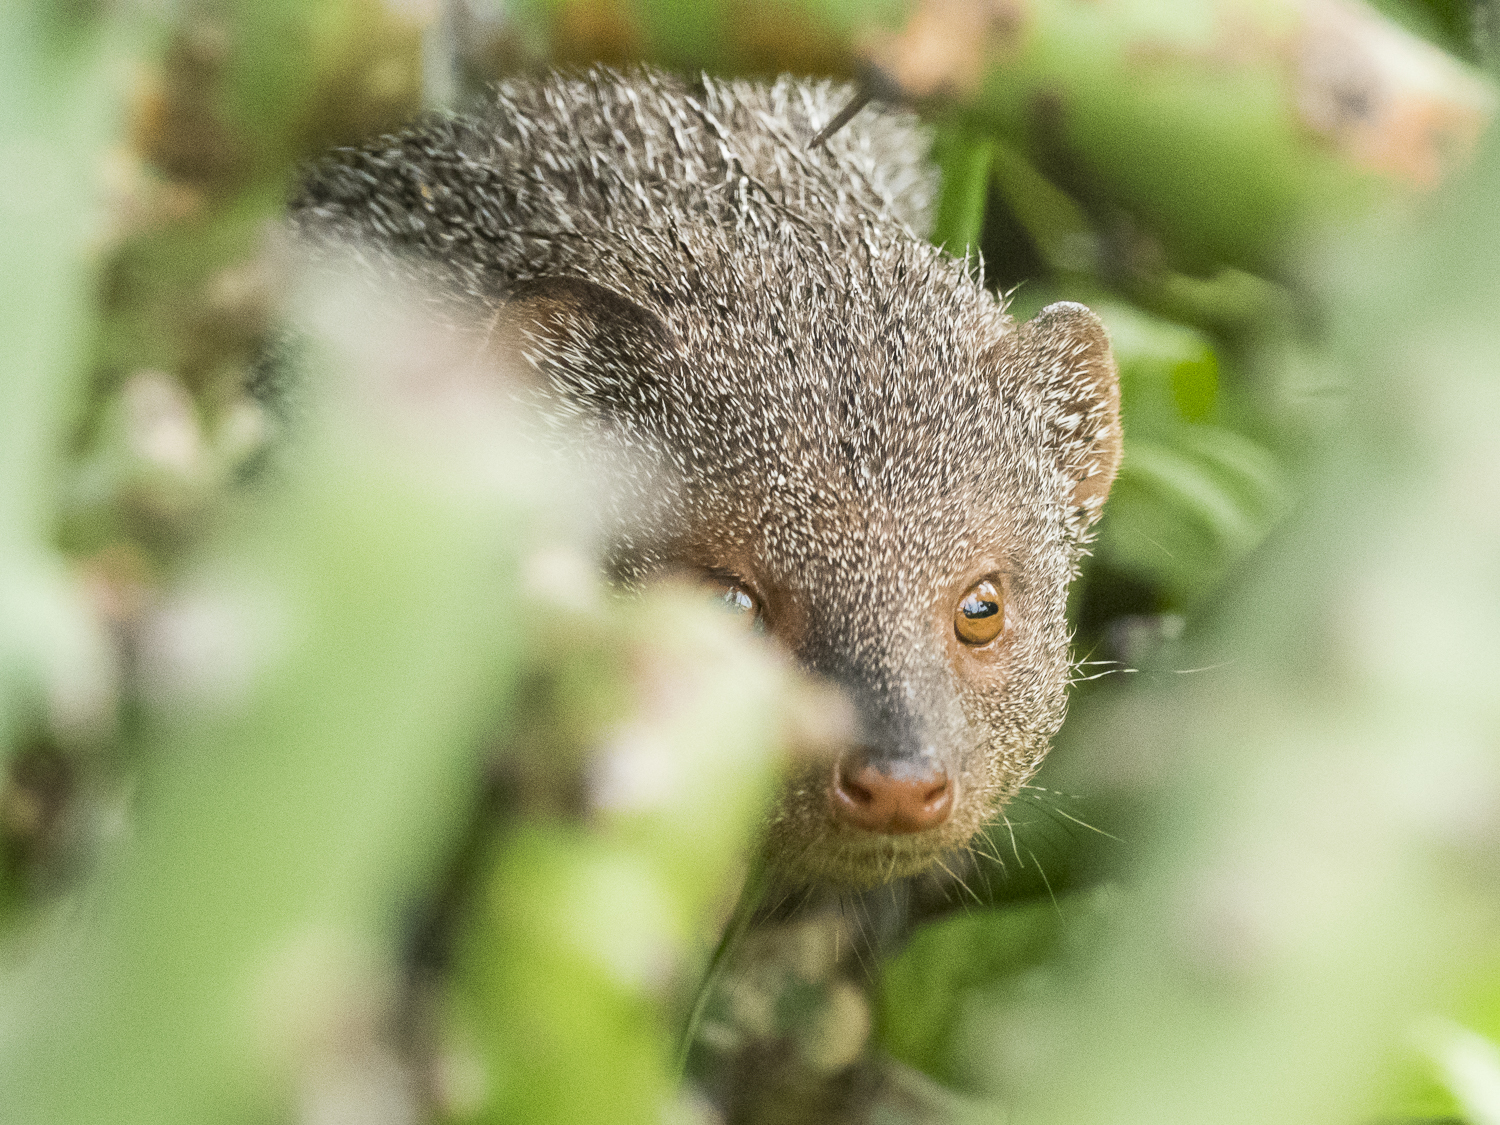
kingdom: Animalia
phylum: Chordata
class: Mammalia
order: Carnivora
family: Herpestidae
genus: Herpestes
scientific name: Herpestes javanicus
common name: Small asian mongoose
